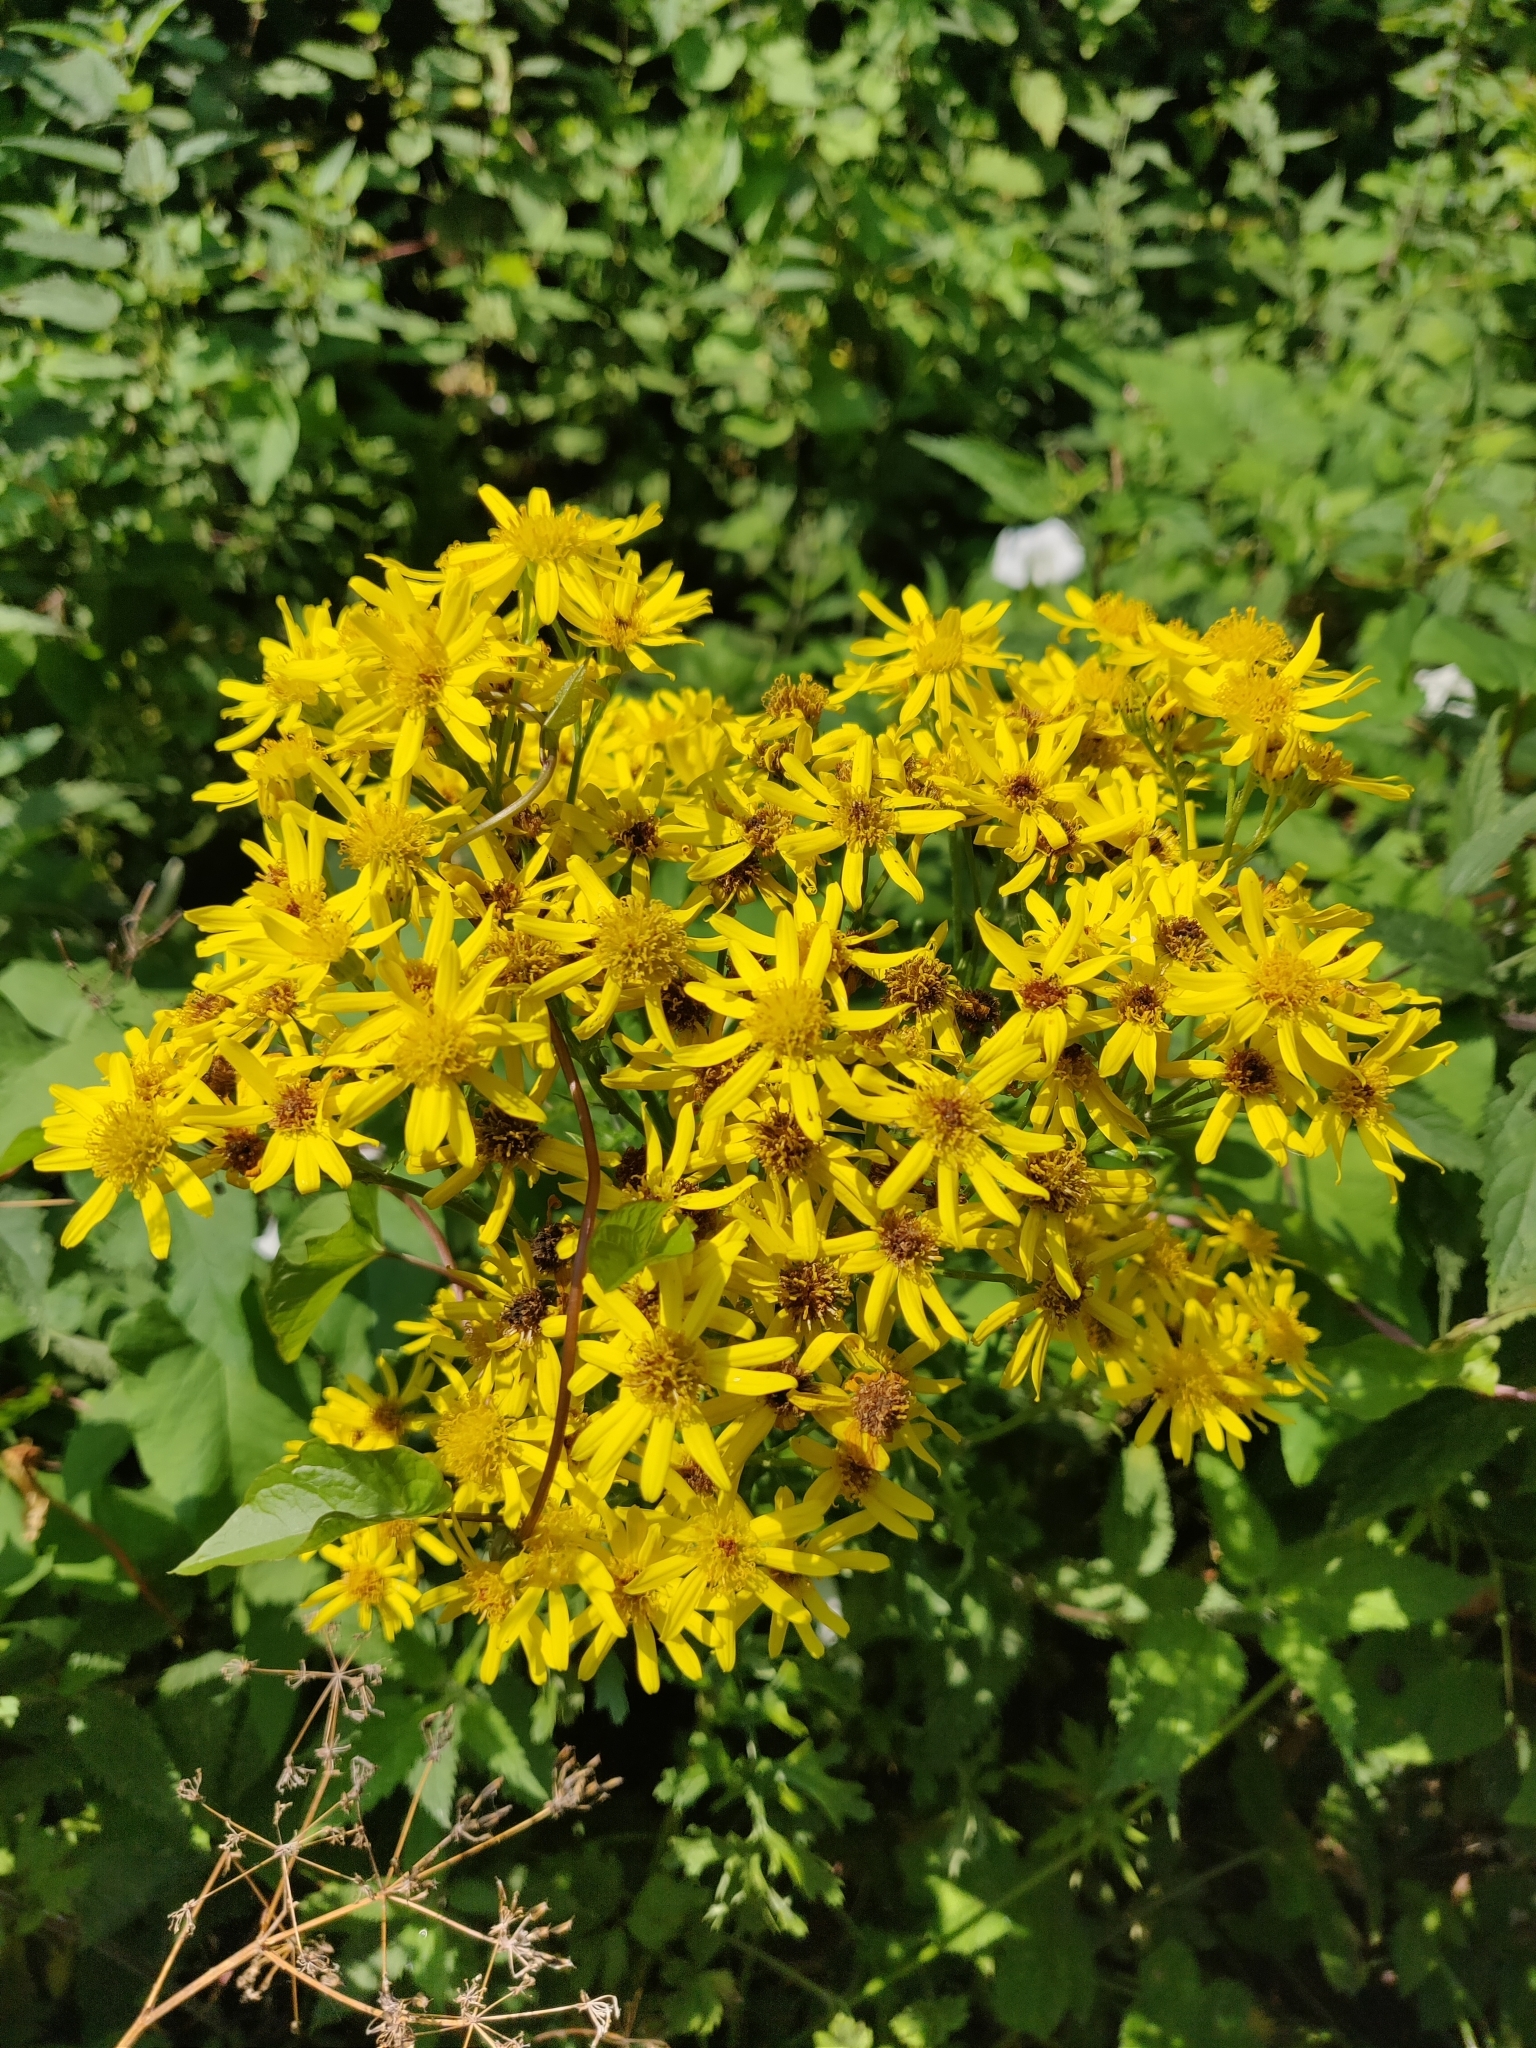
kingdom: Plantae
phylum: Tracheophyta
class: Magnoliopsida
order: Asterales
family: Asteraceae
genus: Jacobaea
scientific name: Jacobaea vulgaris
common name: Stinking willie
